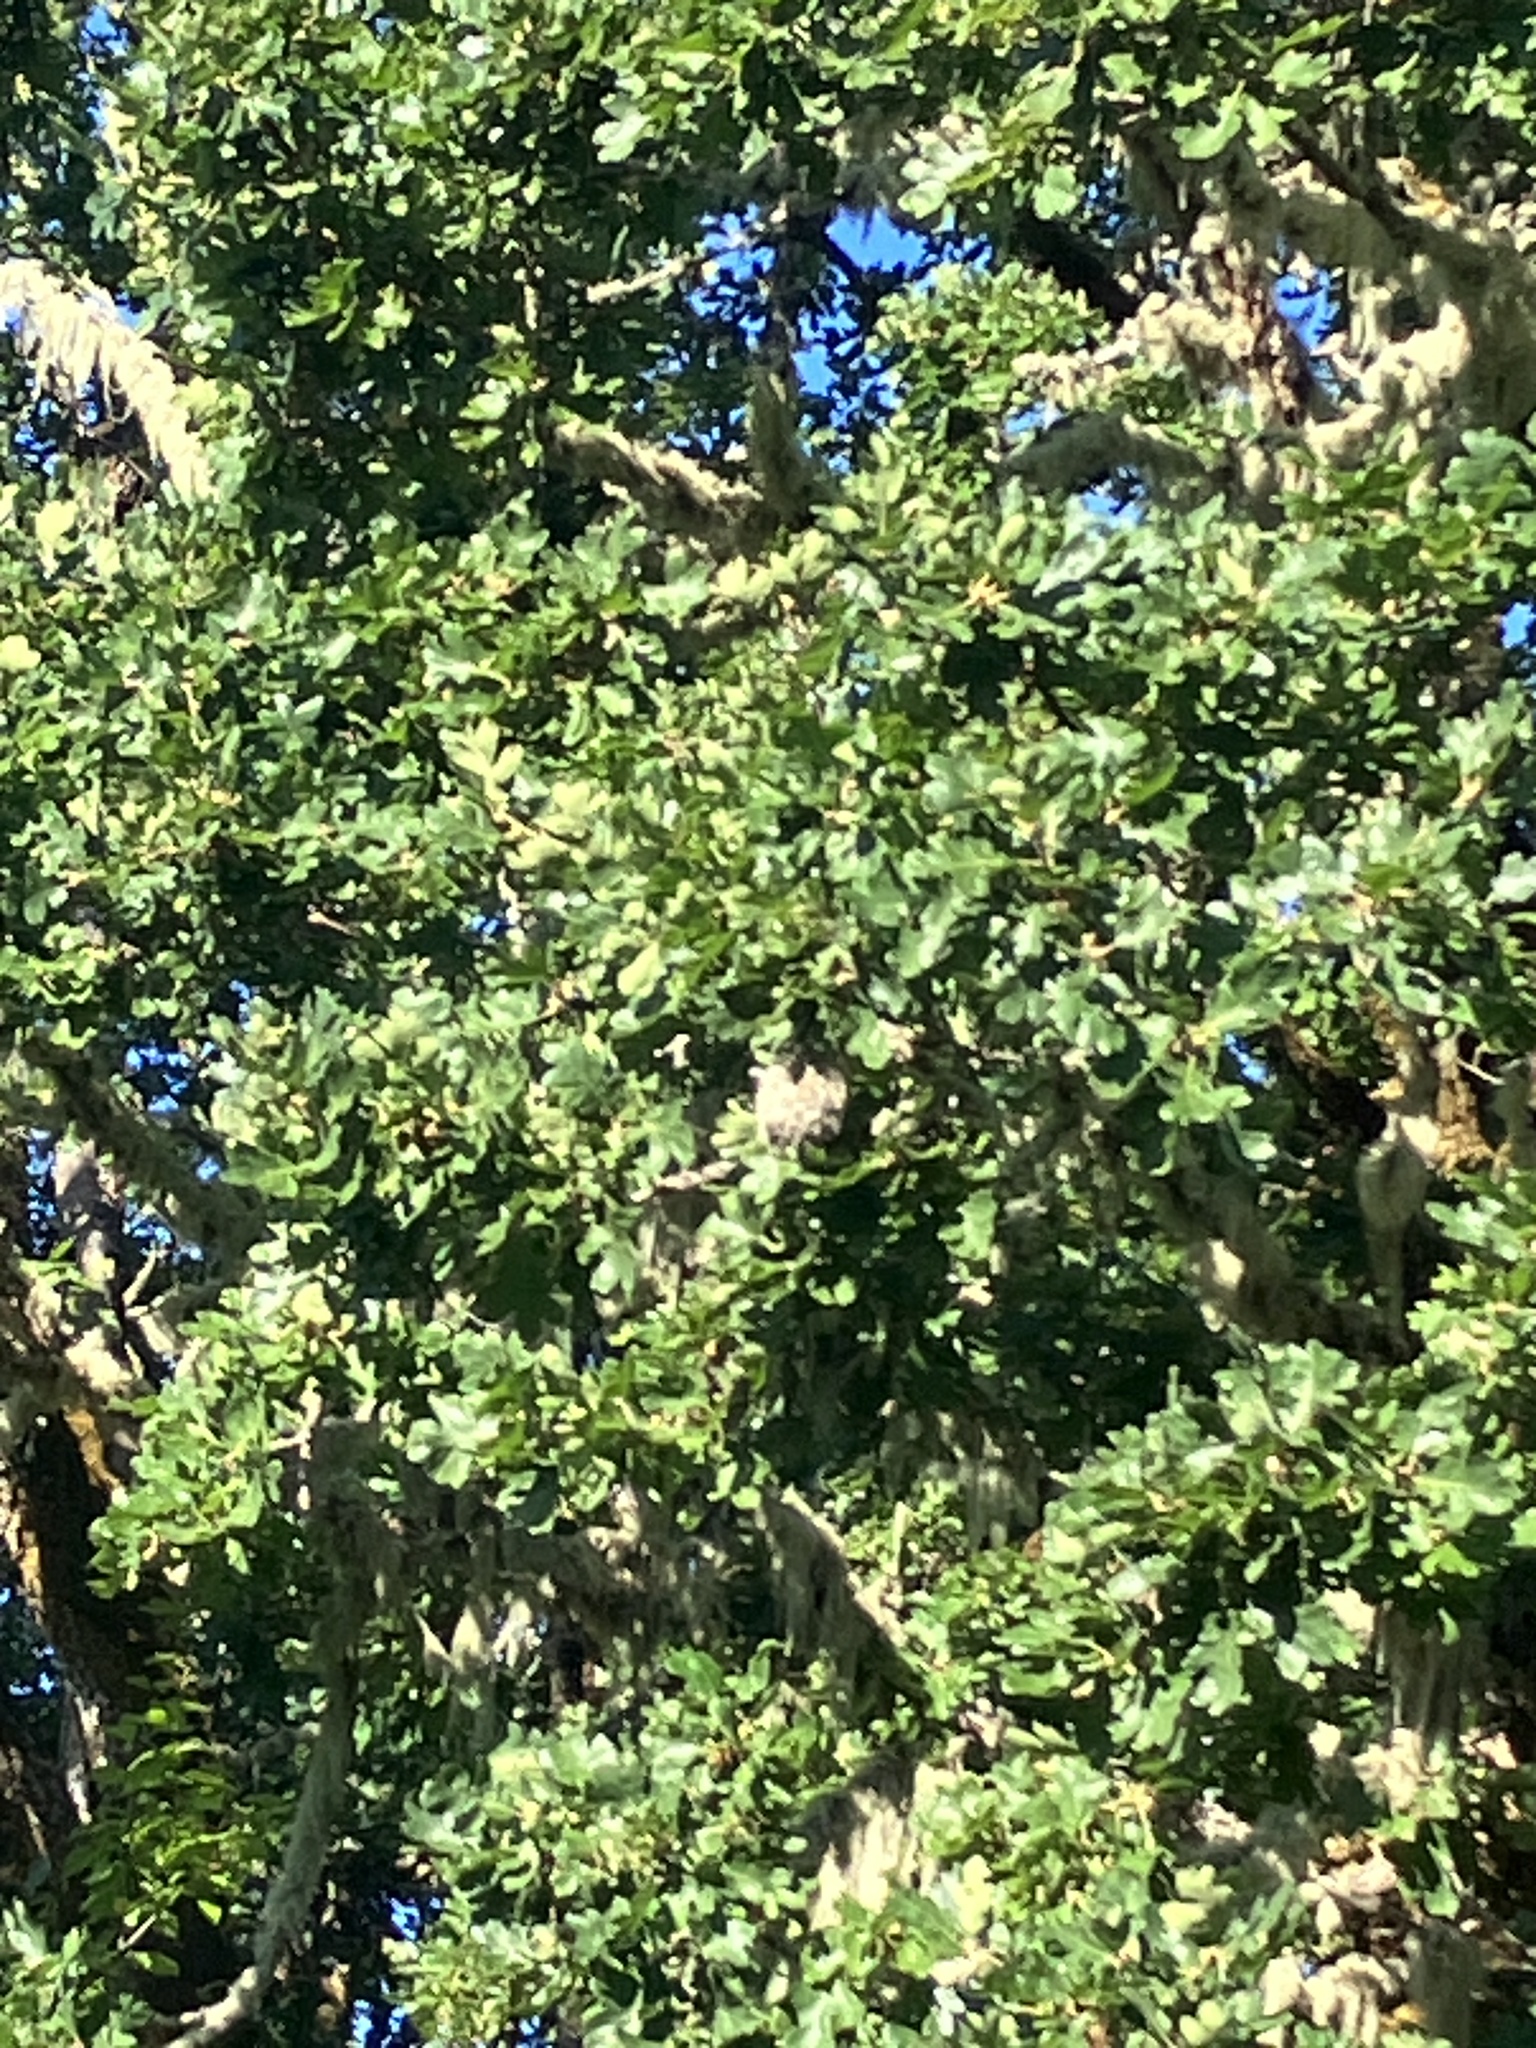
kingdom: Animalia
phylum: Chordata
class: Aves
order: Passeriformes
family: Aegithalidae
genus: Psaltriparus
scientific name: Psaltriparus minimus
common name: American bushtit
